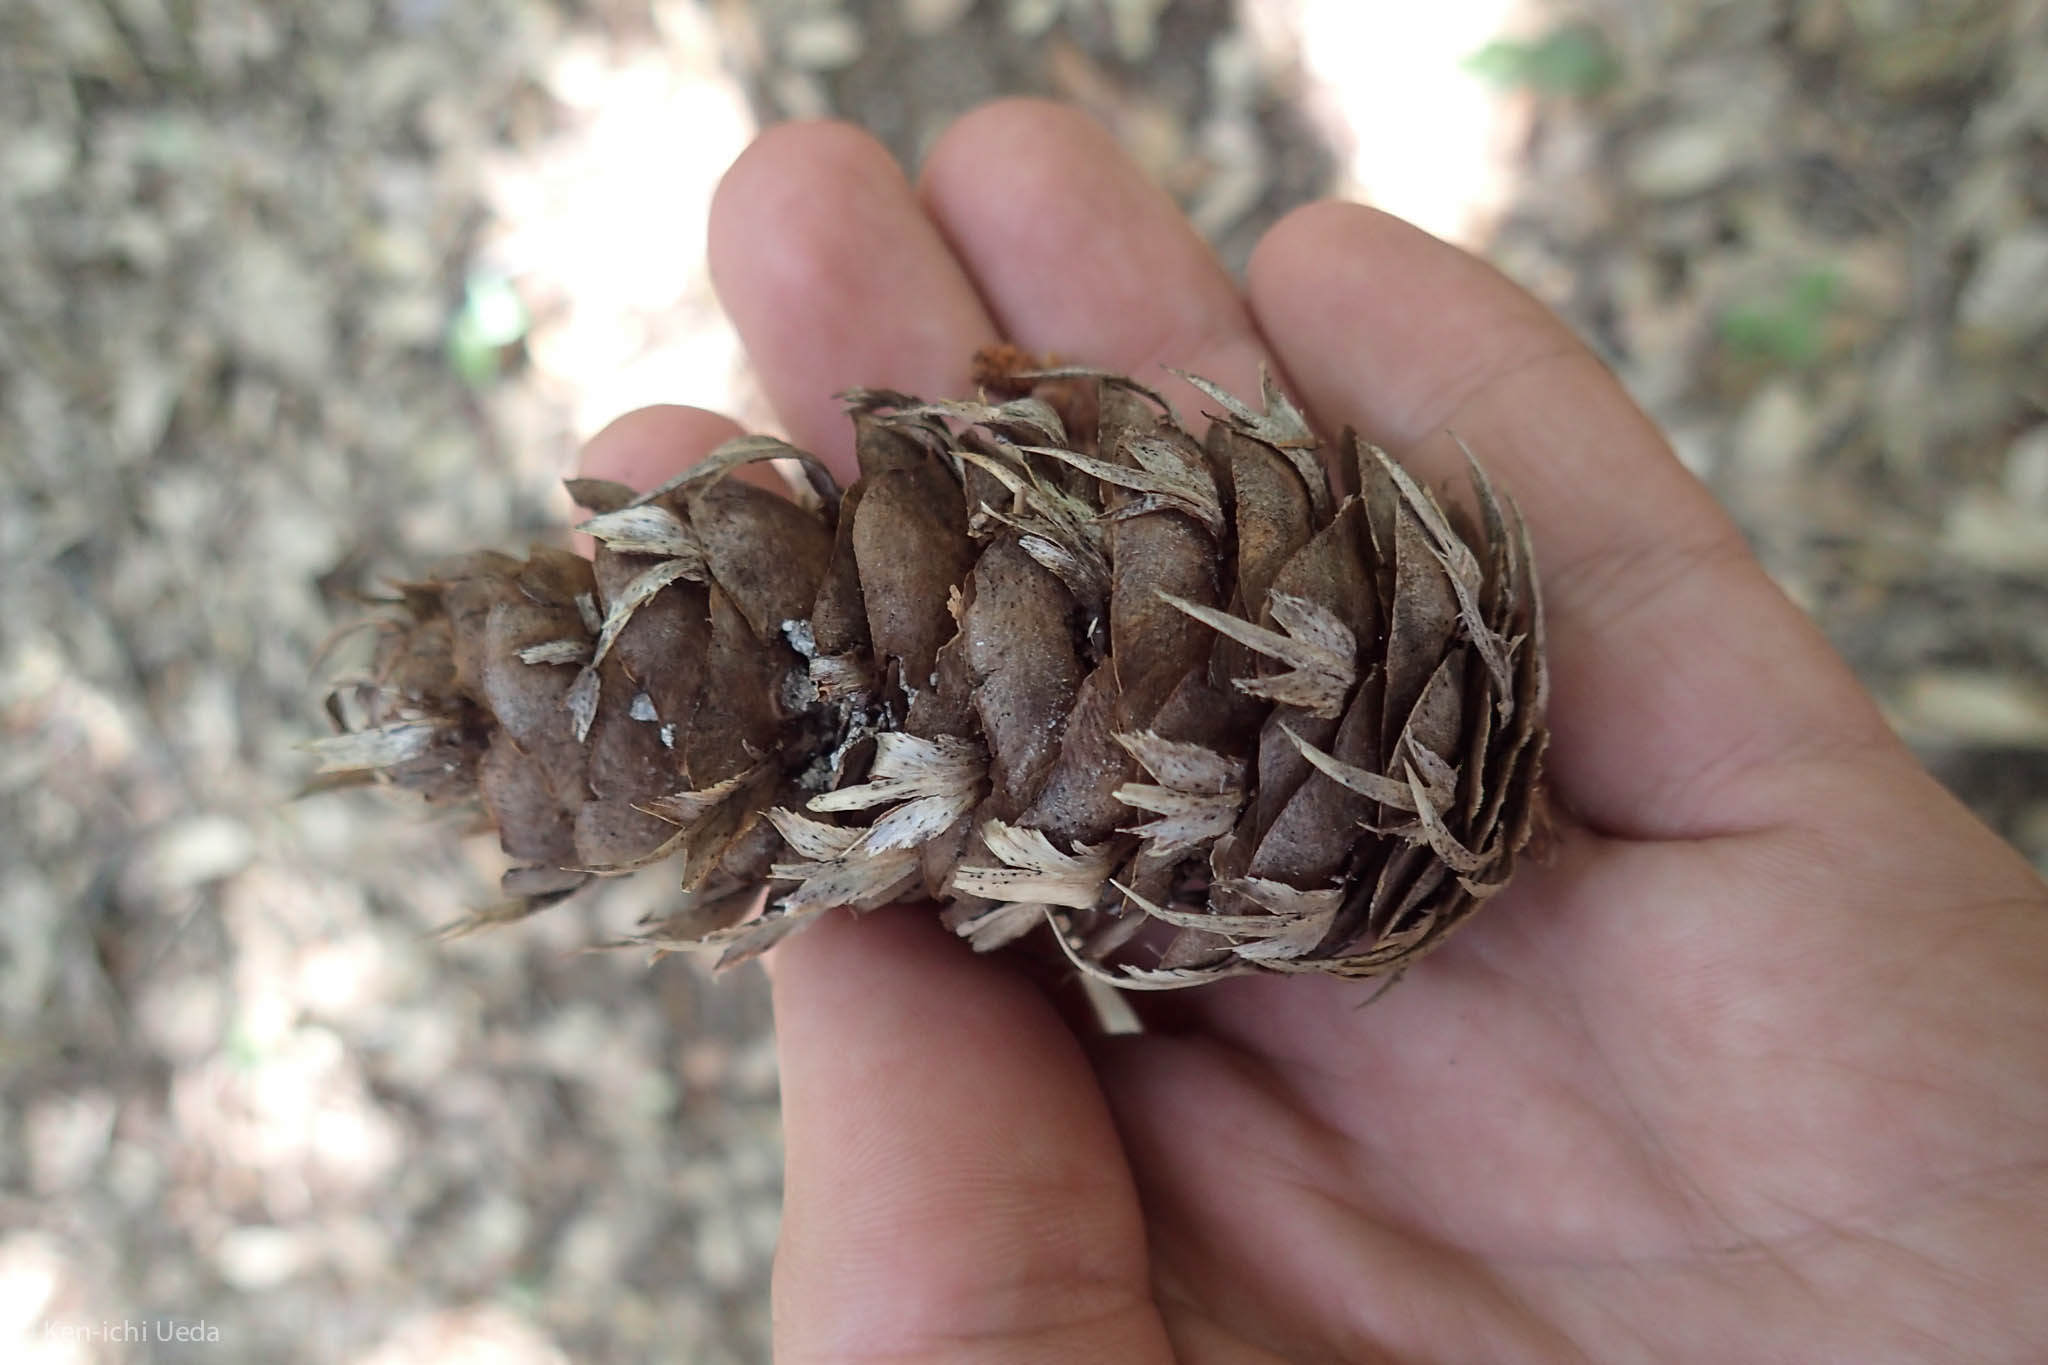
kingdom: Plantae
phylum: Tracheophyta
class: Pinopsida
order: Pinales
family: Pinaceae
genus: Pseudotsuga
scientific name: Pseudotsuga menziesii
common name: Douglas fir
